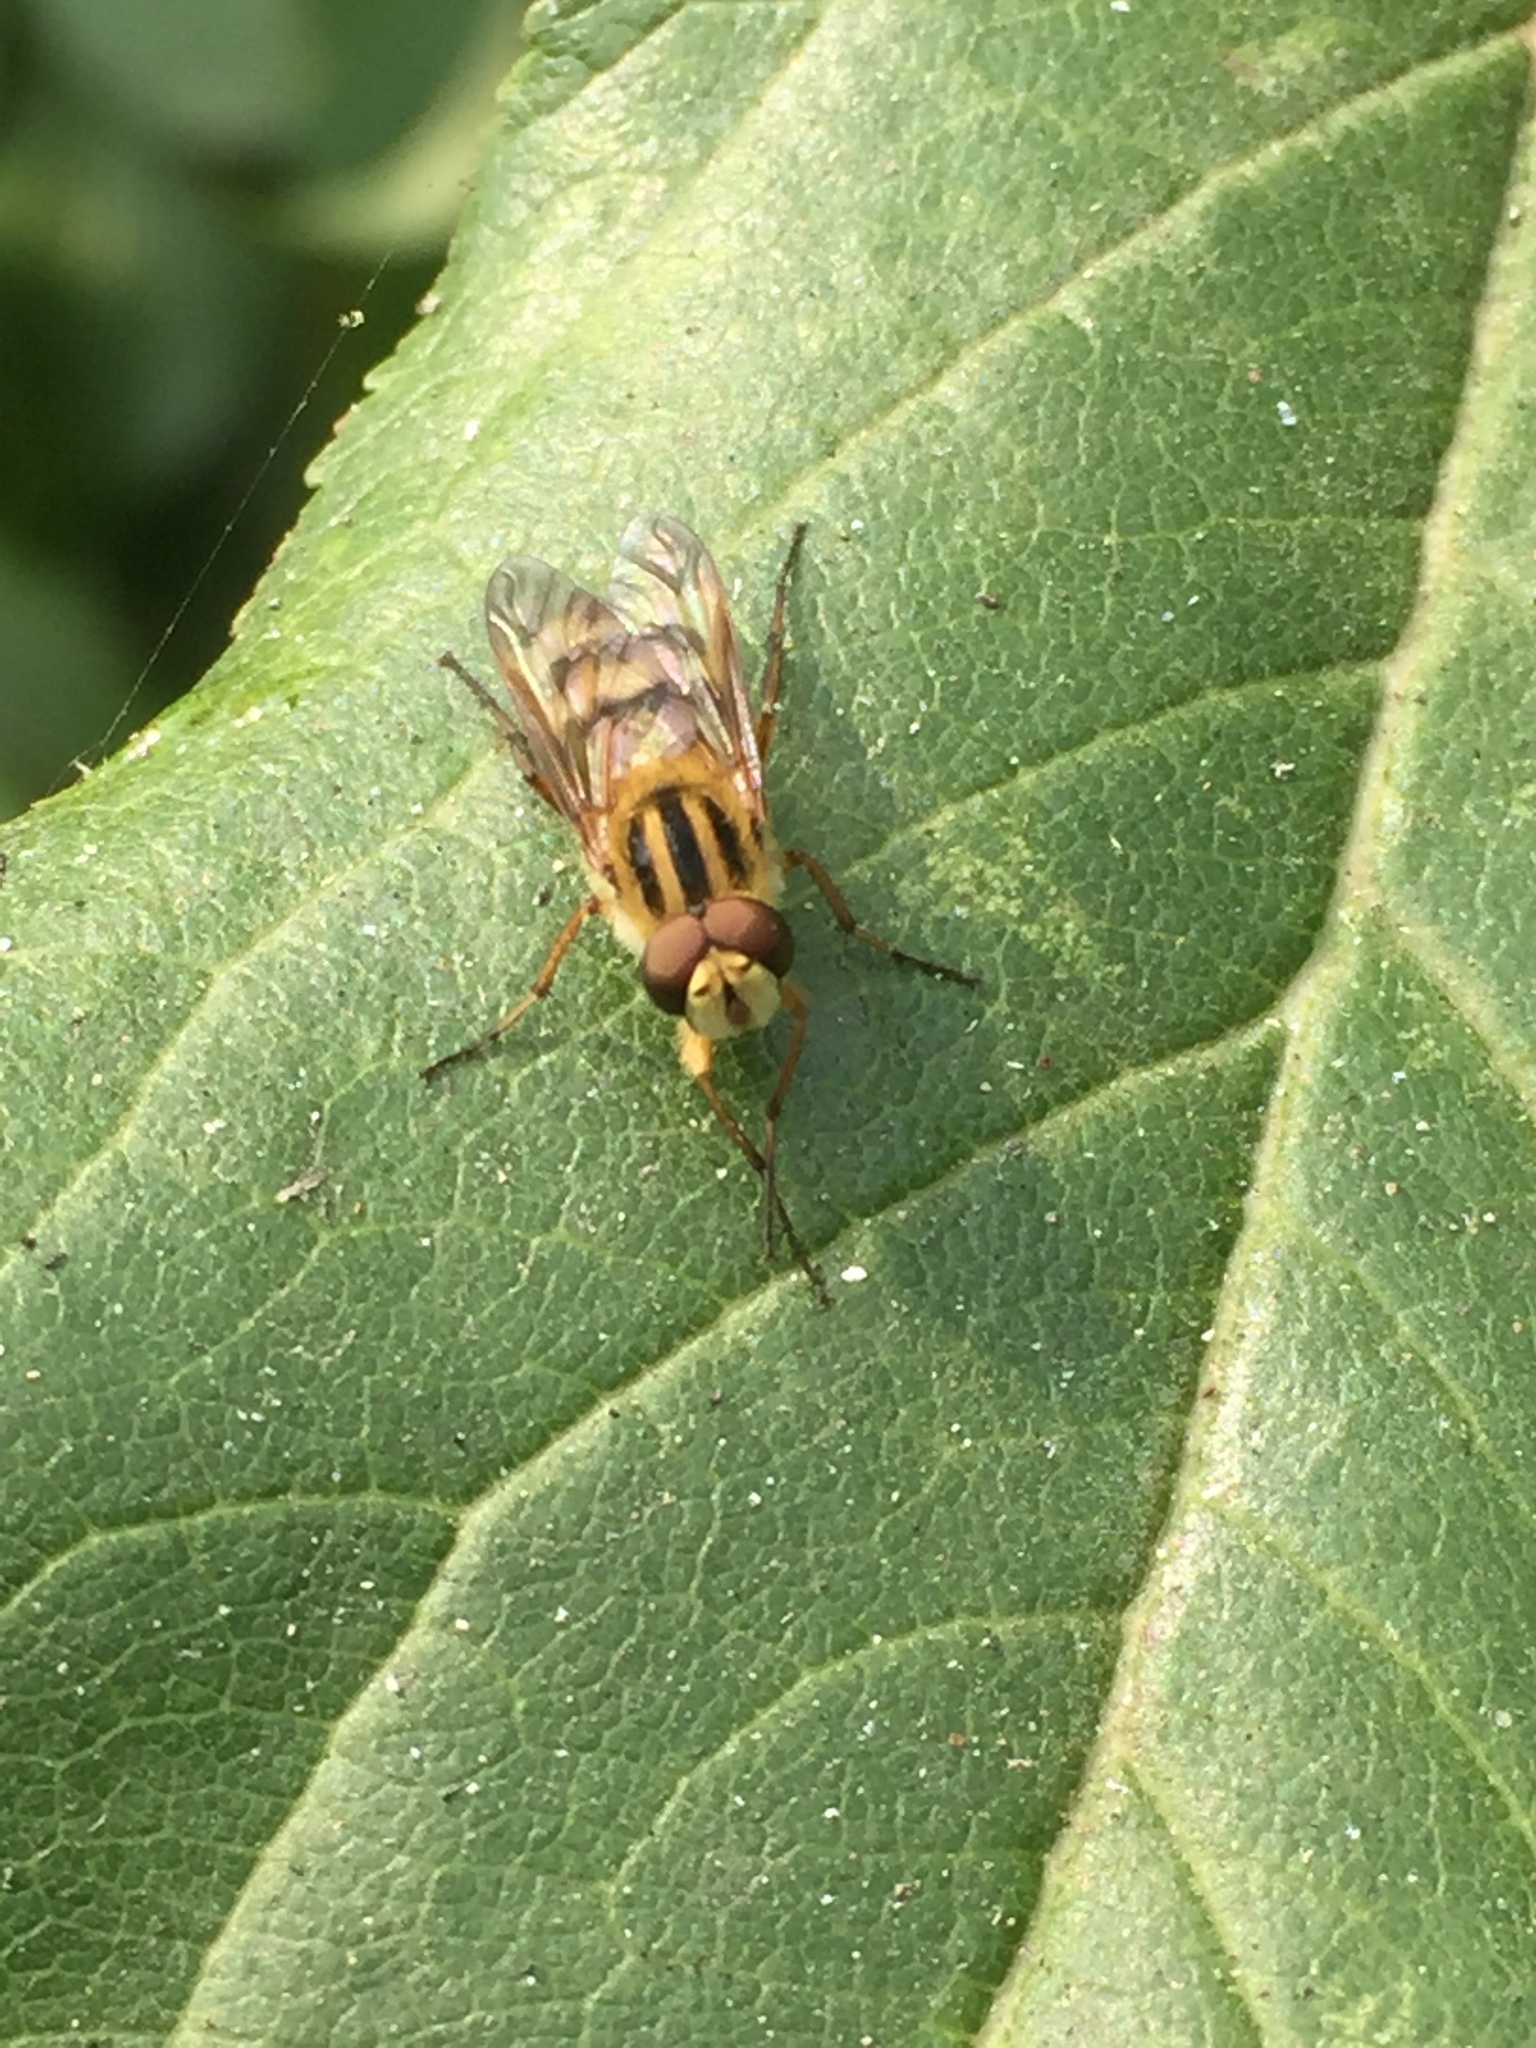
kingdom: Animalia
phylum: Arthropoda
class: Insecta
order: Diptera
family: Therevidae
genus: Thereva
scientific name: Thereva fucata
